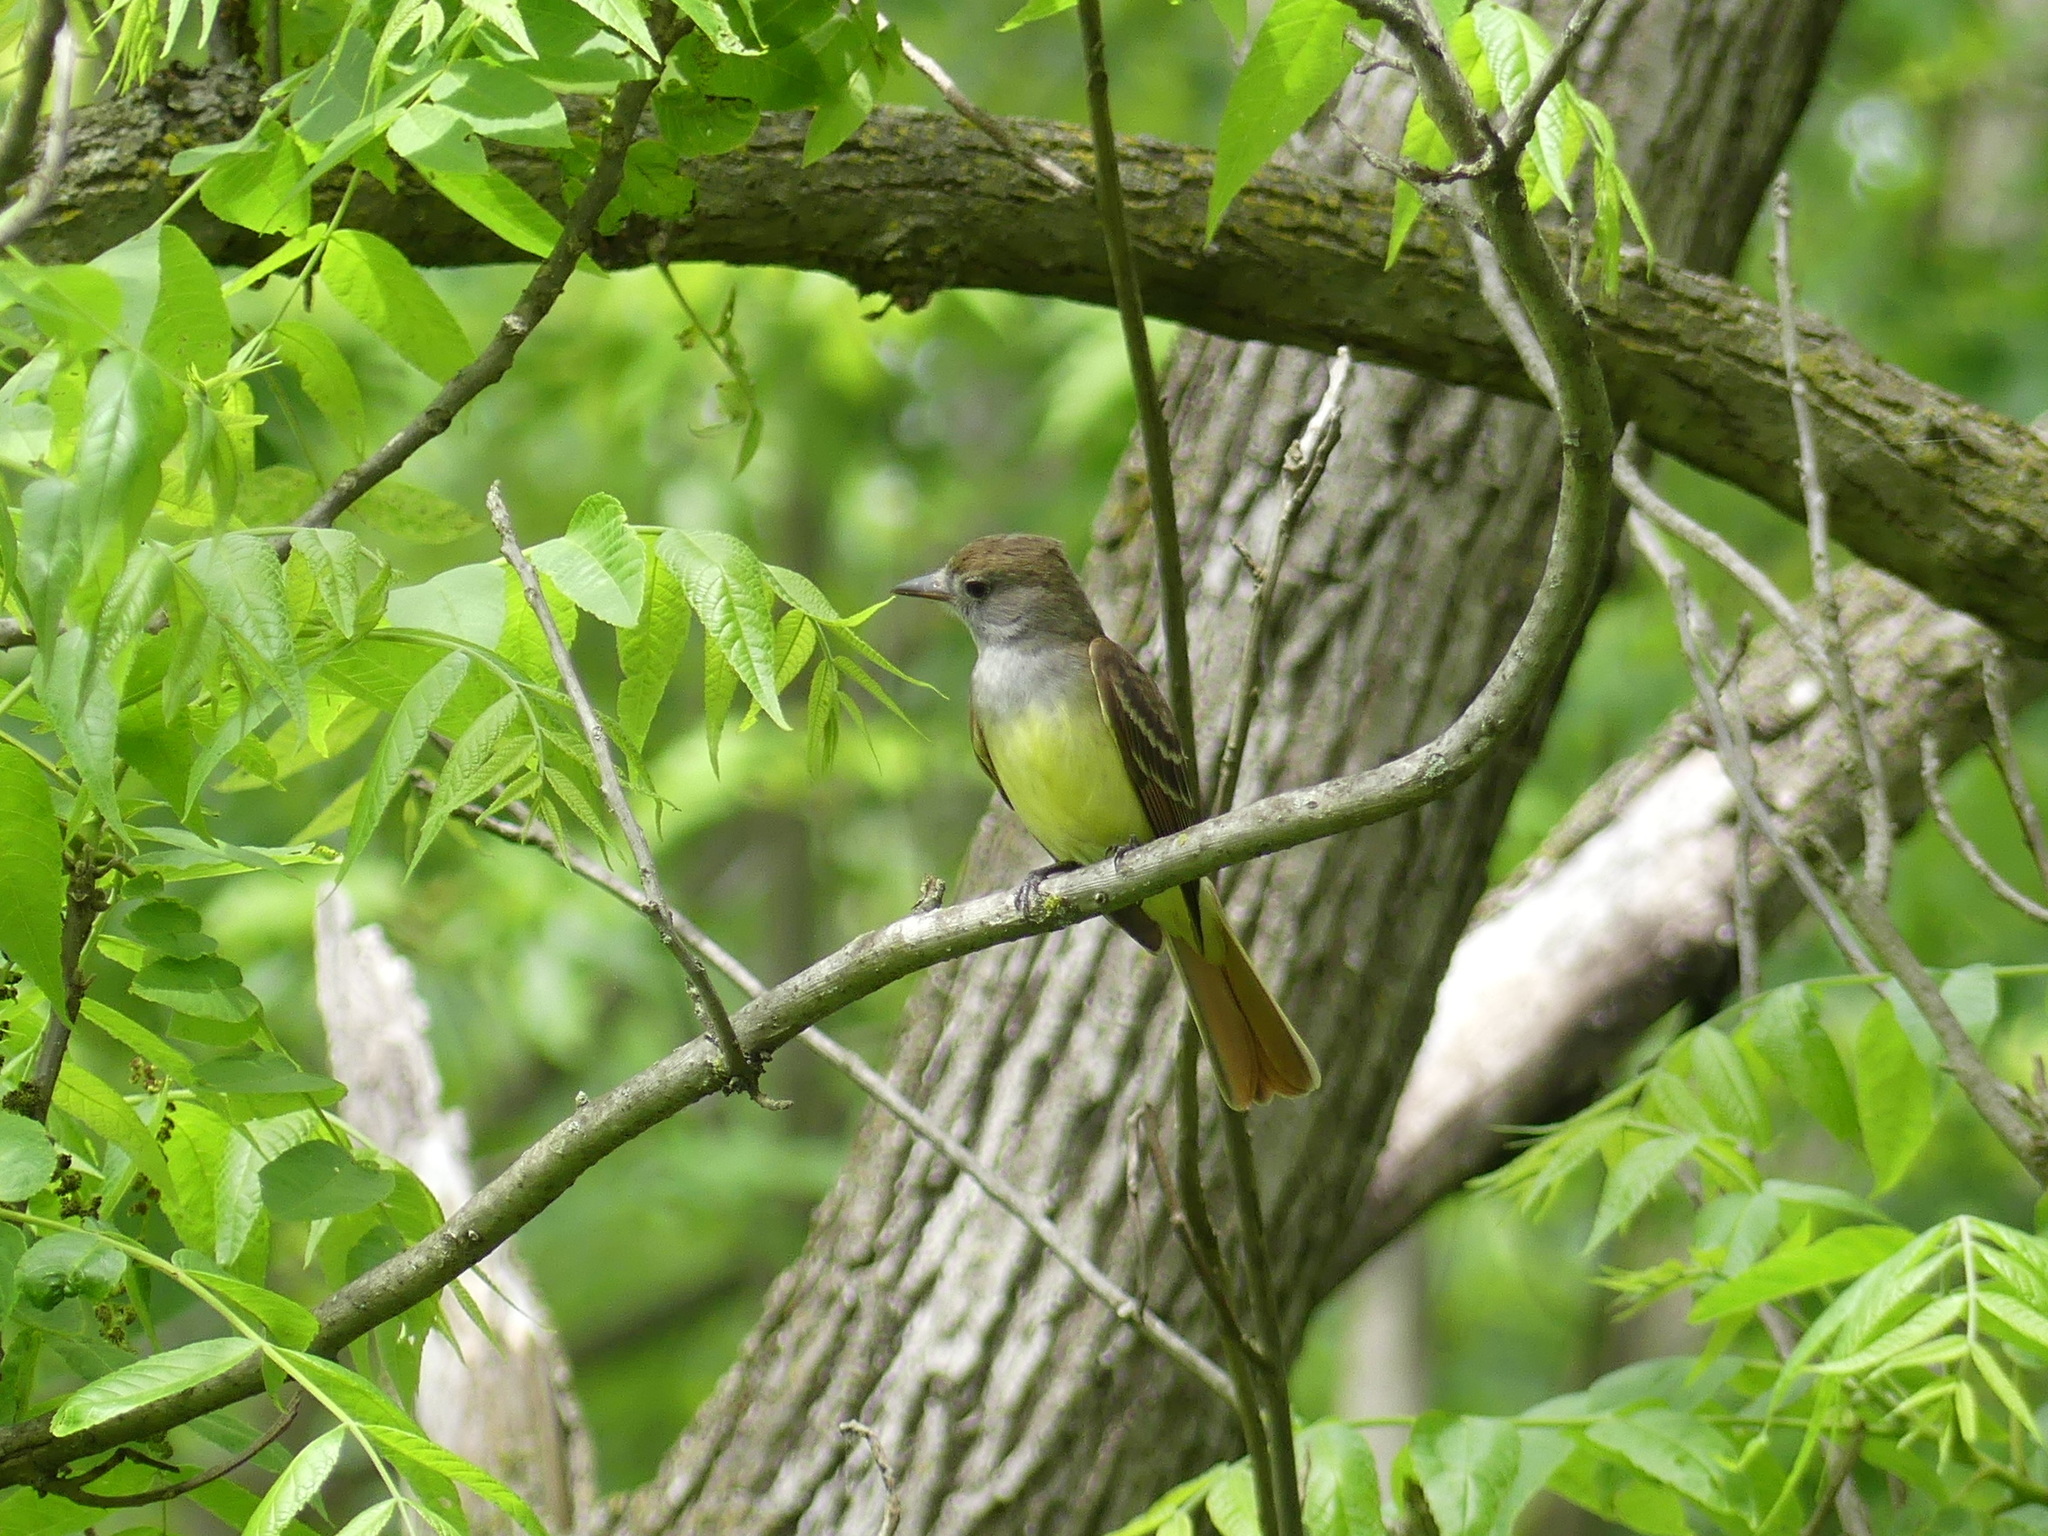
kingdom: Animalia
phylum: Chordata
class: Aves
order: Passeriformes
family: Tyrannidae
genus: Myiarchus
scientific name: Myiarchus crinitus
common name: Great crested flycatcher
